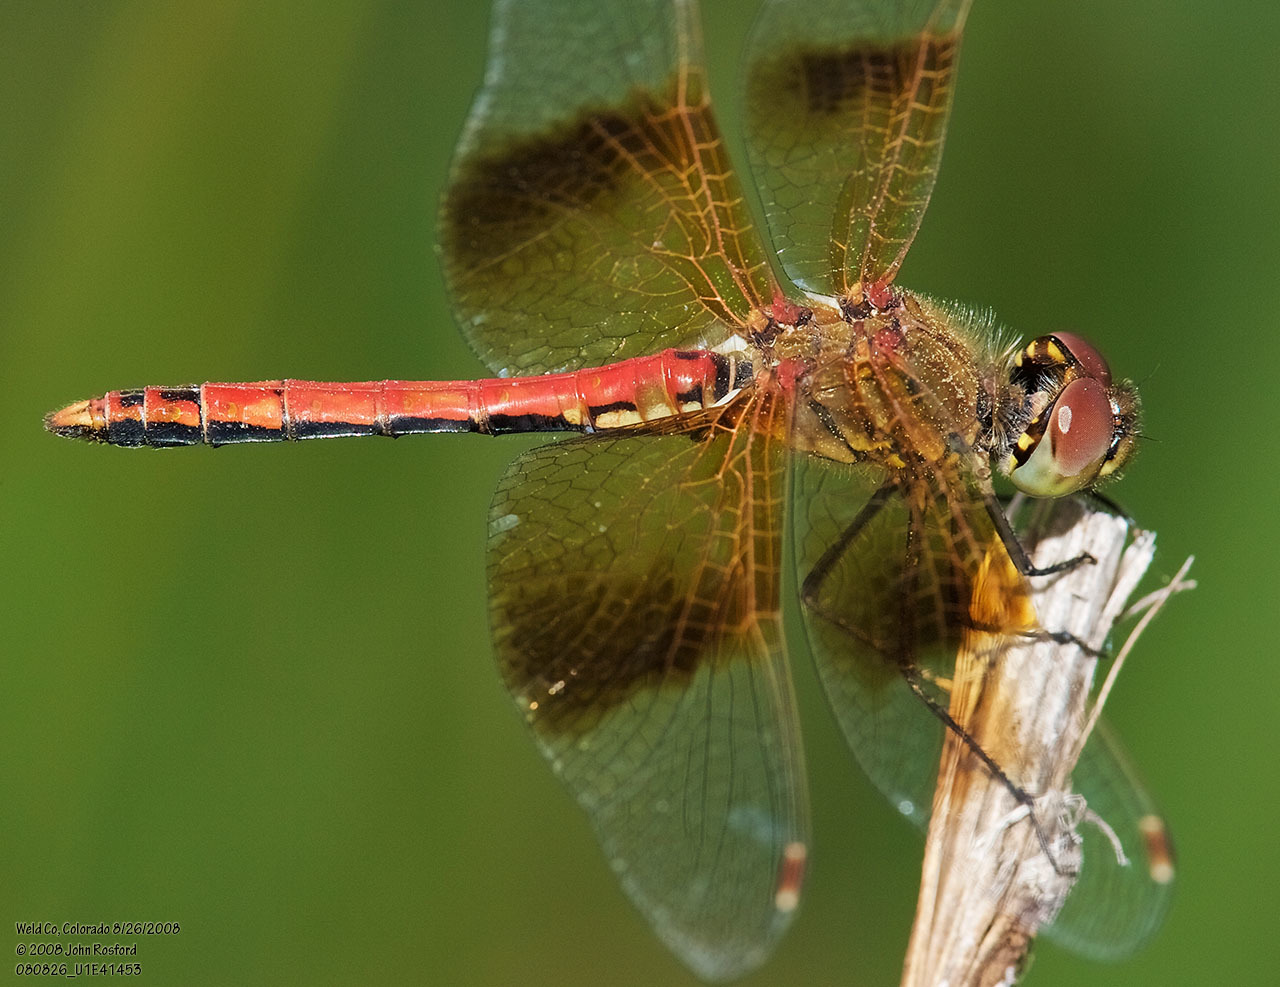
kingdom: Animalia
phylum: Arthropoda
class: Insecta
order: Odonata
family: Libellulidae
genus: Sympetrum
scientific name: Sympetrum semicinctum
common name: Band-winged meadowhawk
